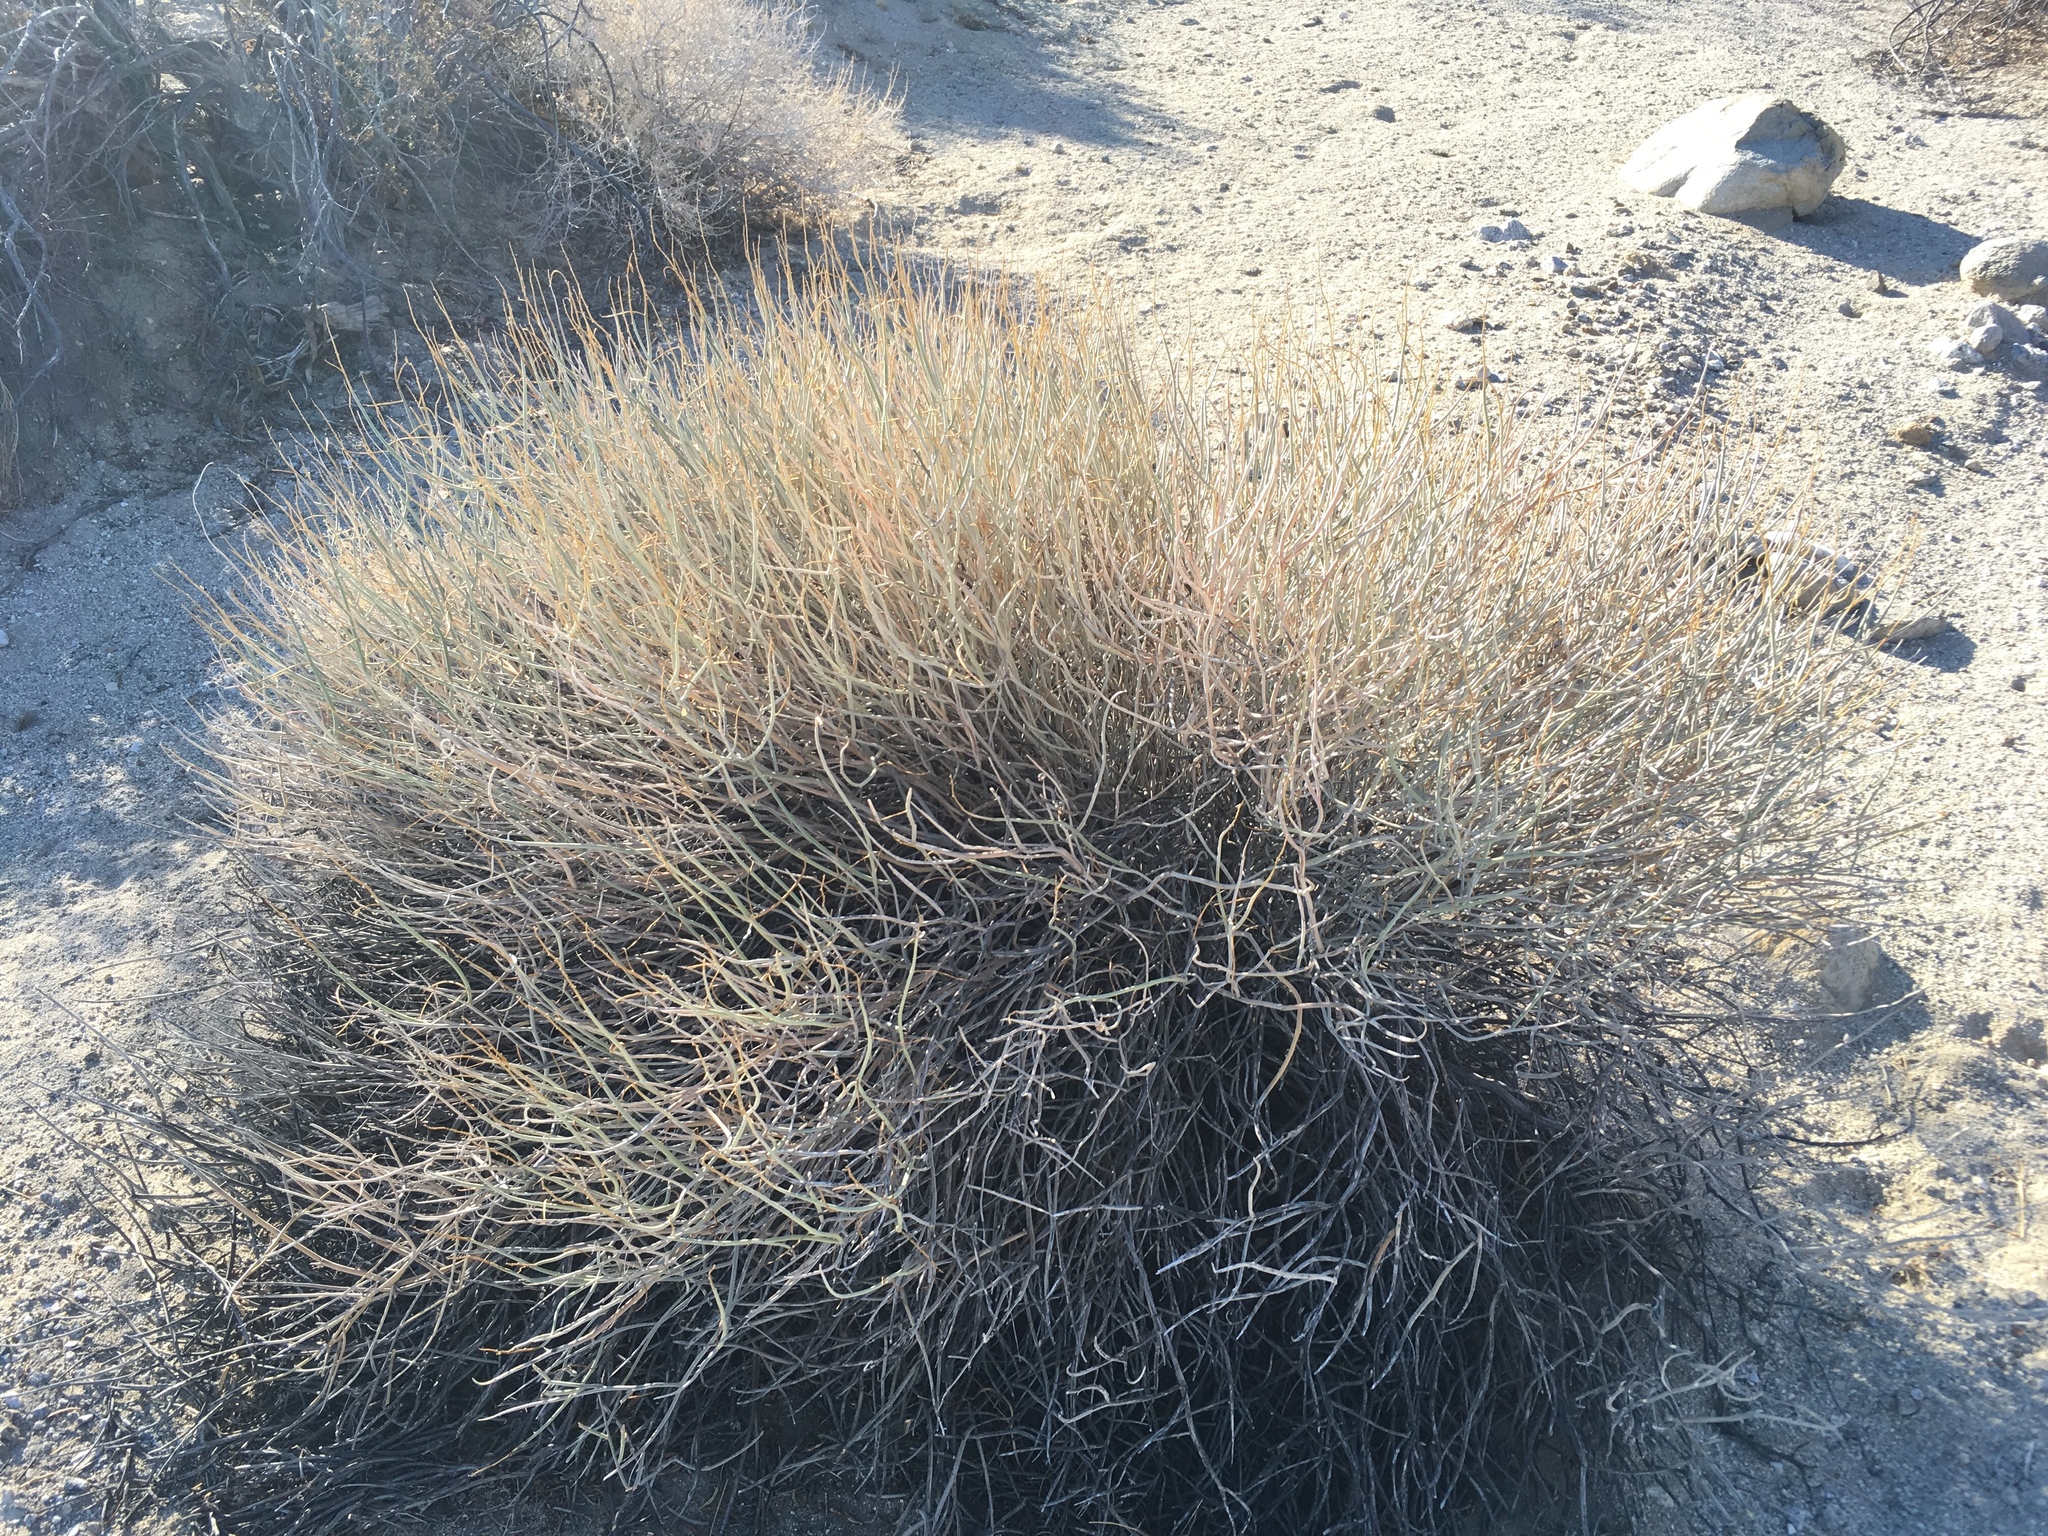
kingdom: Plantae
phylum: Tracheophyta
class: Magnoliopsida
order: Fabales
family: Fabaceae
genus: Senna
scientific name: Senna armata
